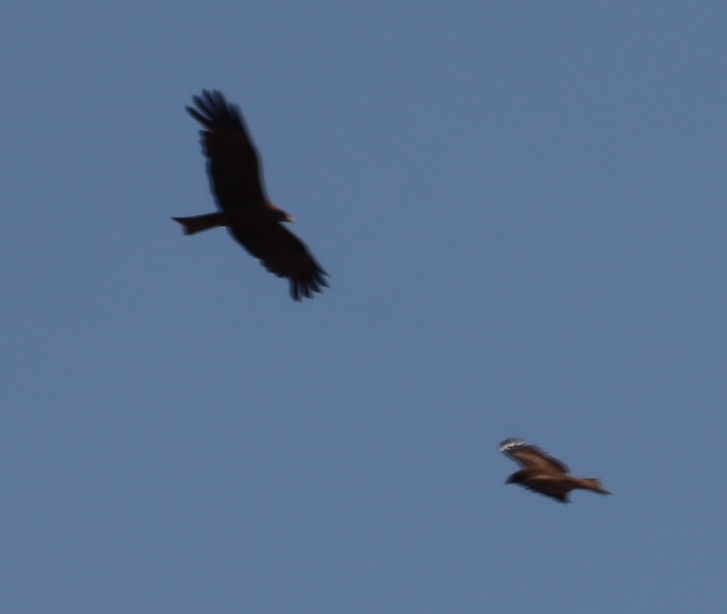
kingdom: Animalia
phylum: Chordata
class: Aves
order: Accipitriformes
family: Accipitridae
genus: Milvus
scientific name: Milvus migrans
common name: Black kite
